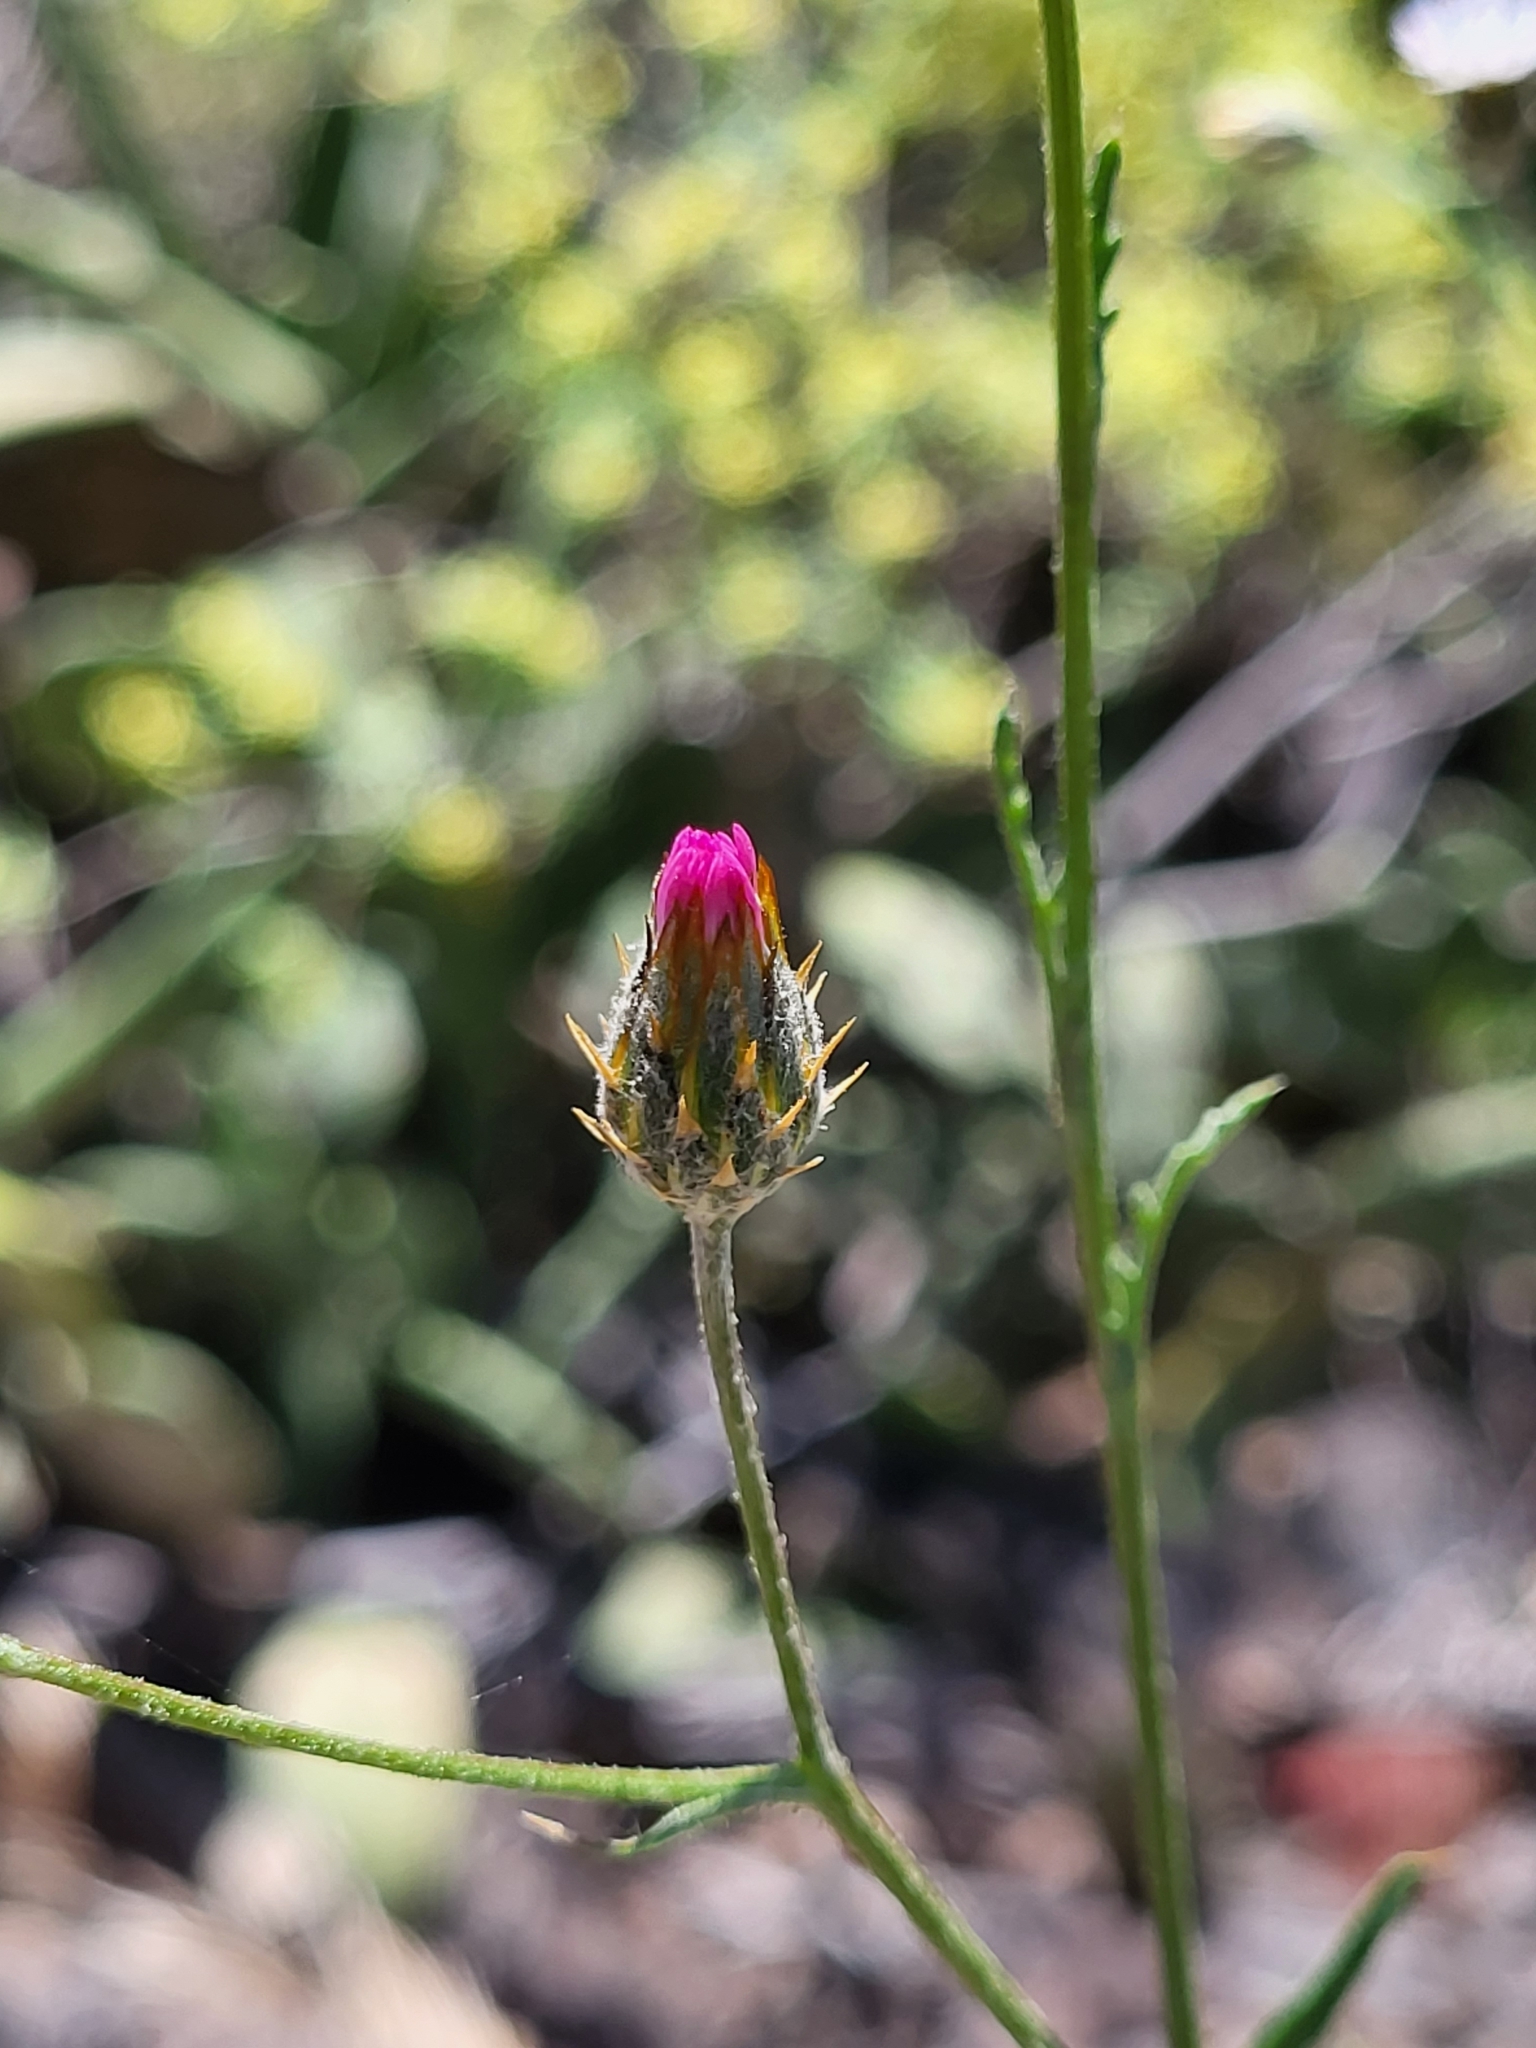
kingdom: Plantae
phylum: Tracheophyta
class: Magnoliopsida
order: Asterales
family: Asteraceae
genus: Volutaria
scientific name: Volutaria canariensis
